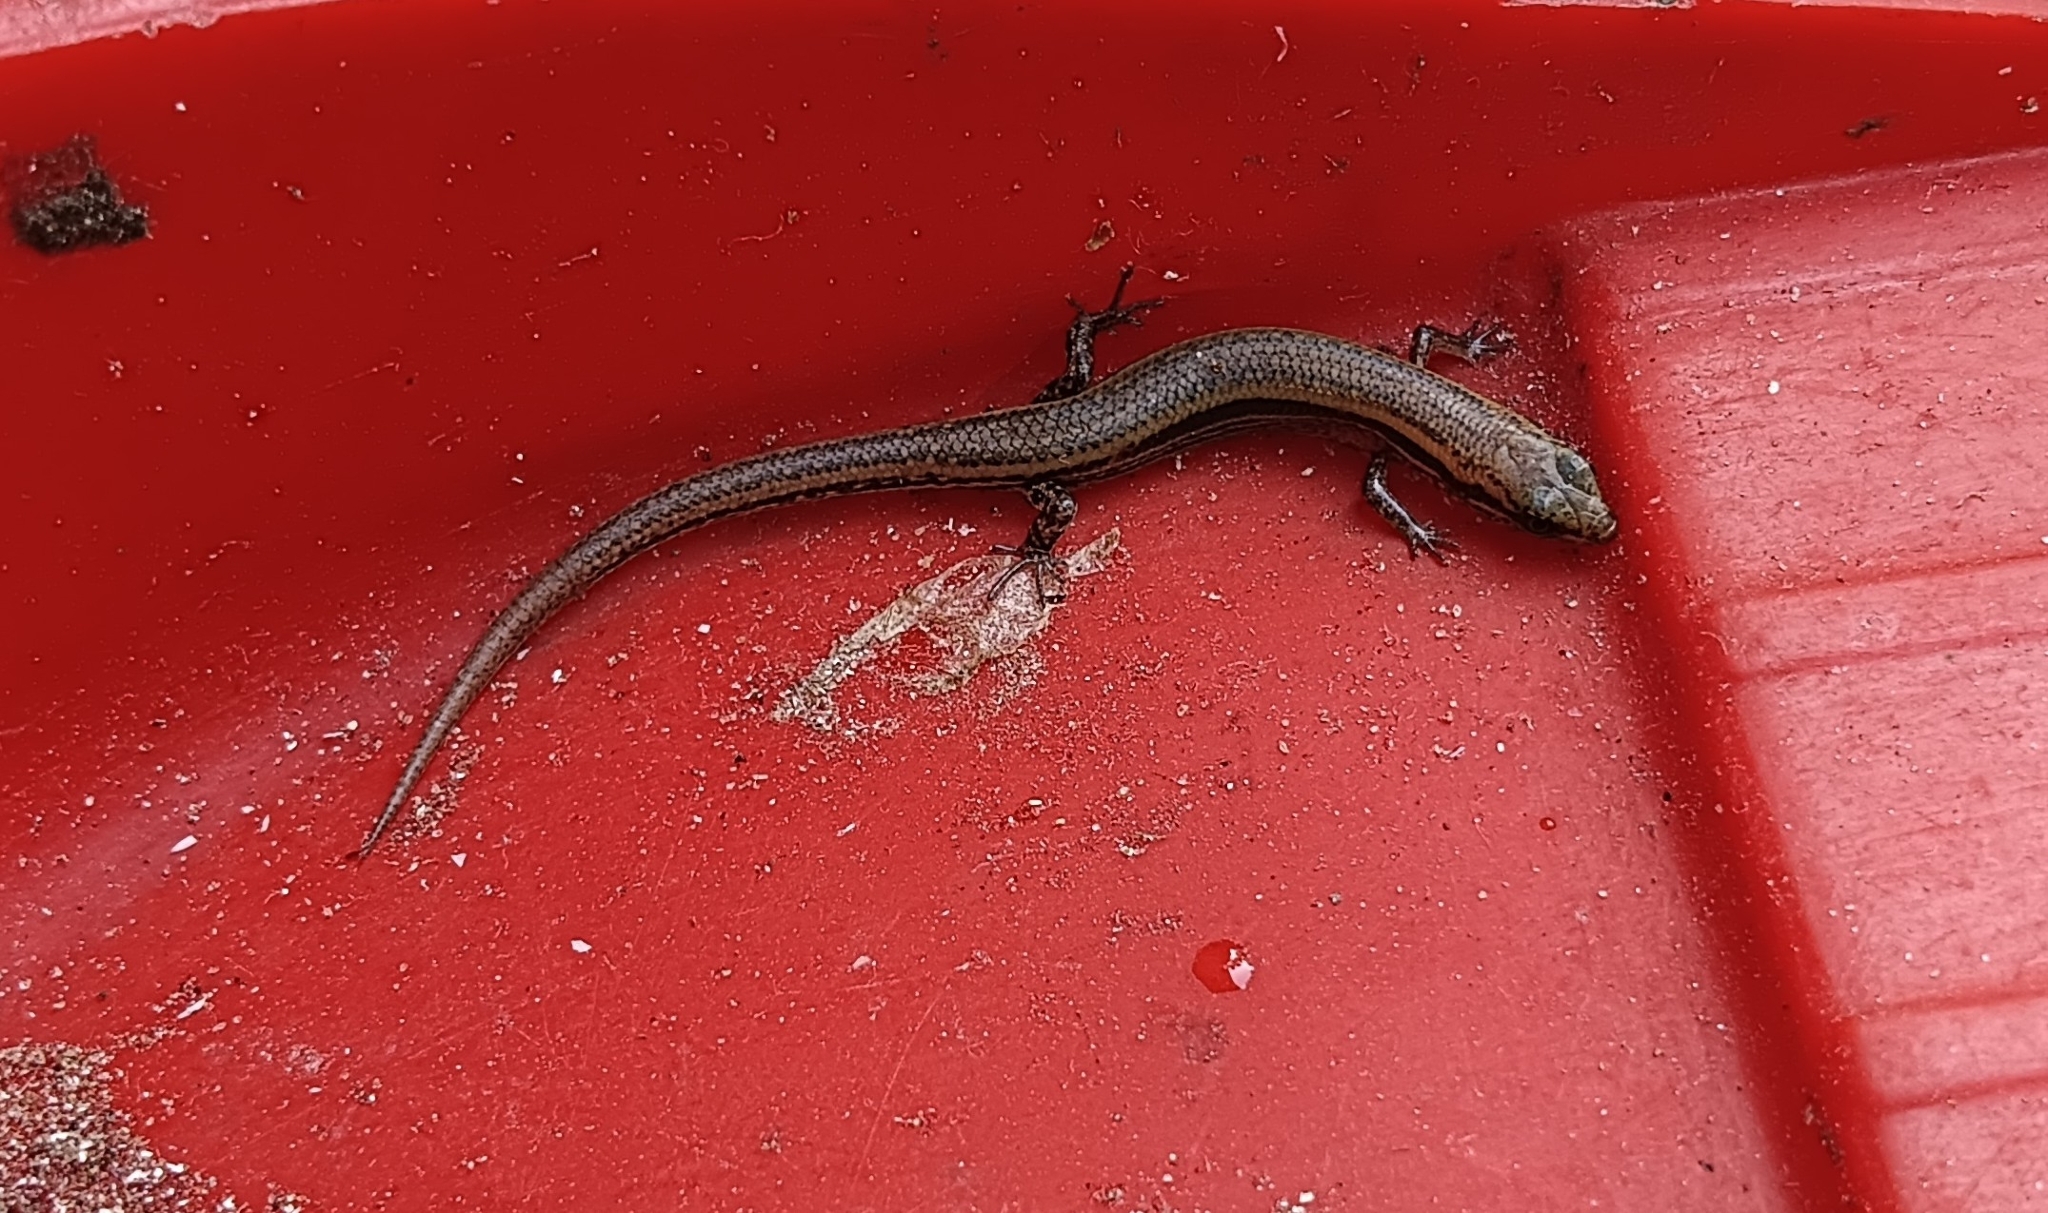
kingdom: Animalia
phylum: Chordata
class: Squamata
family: Scincidae
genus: Eutropis
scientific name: Eutropis carinata
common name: Keeled indian mabuya
